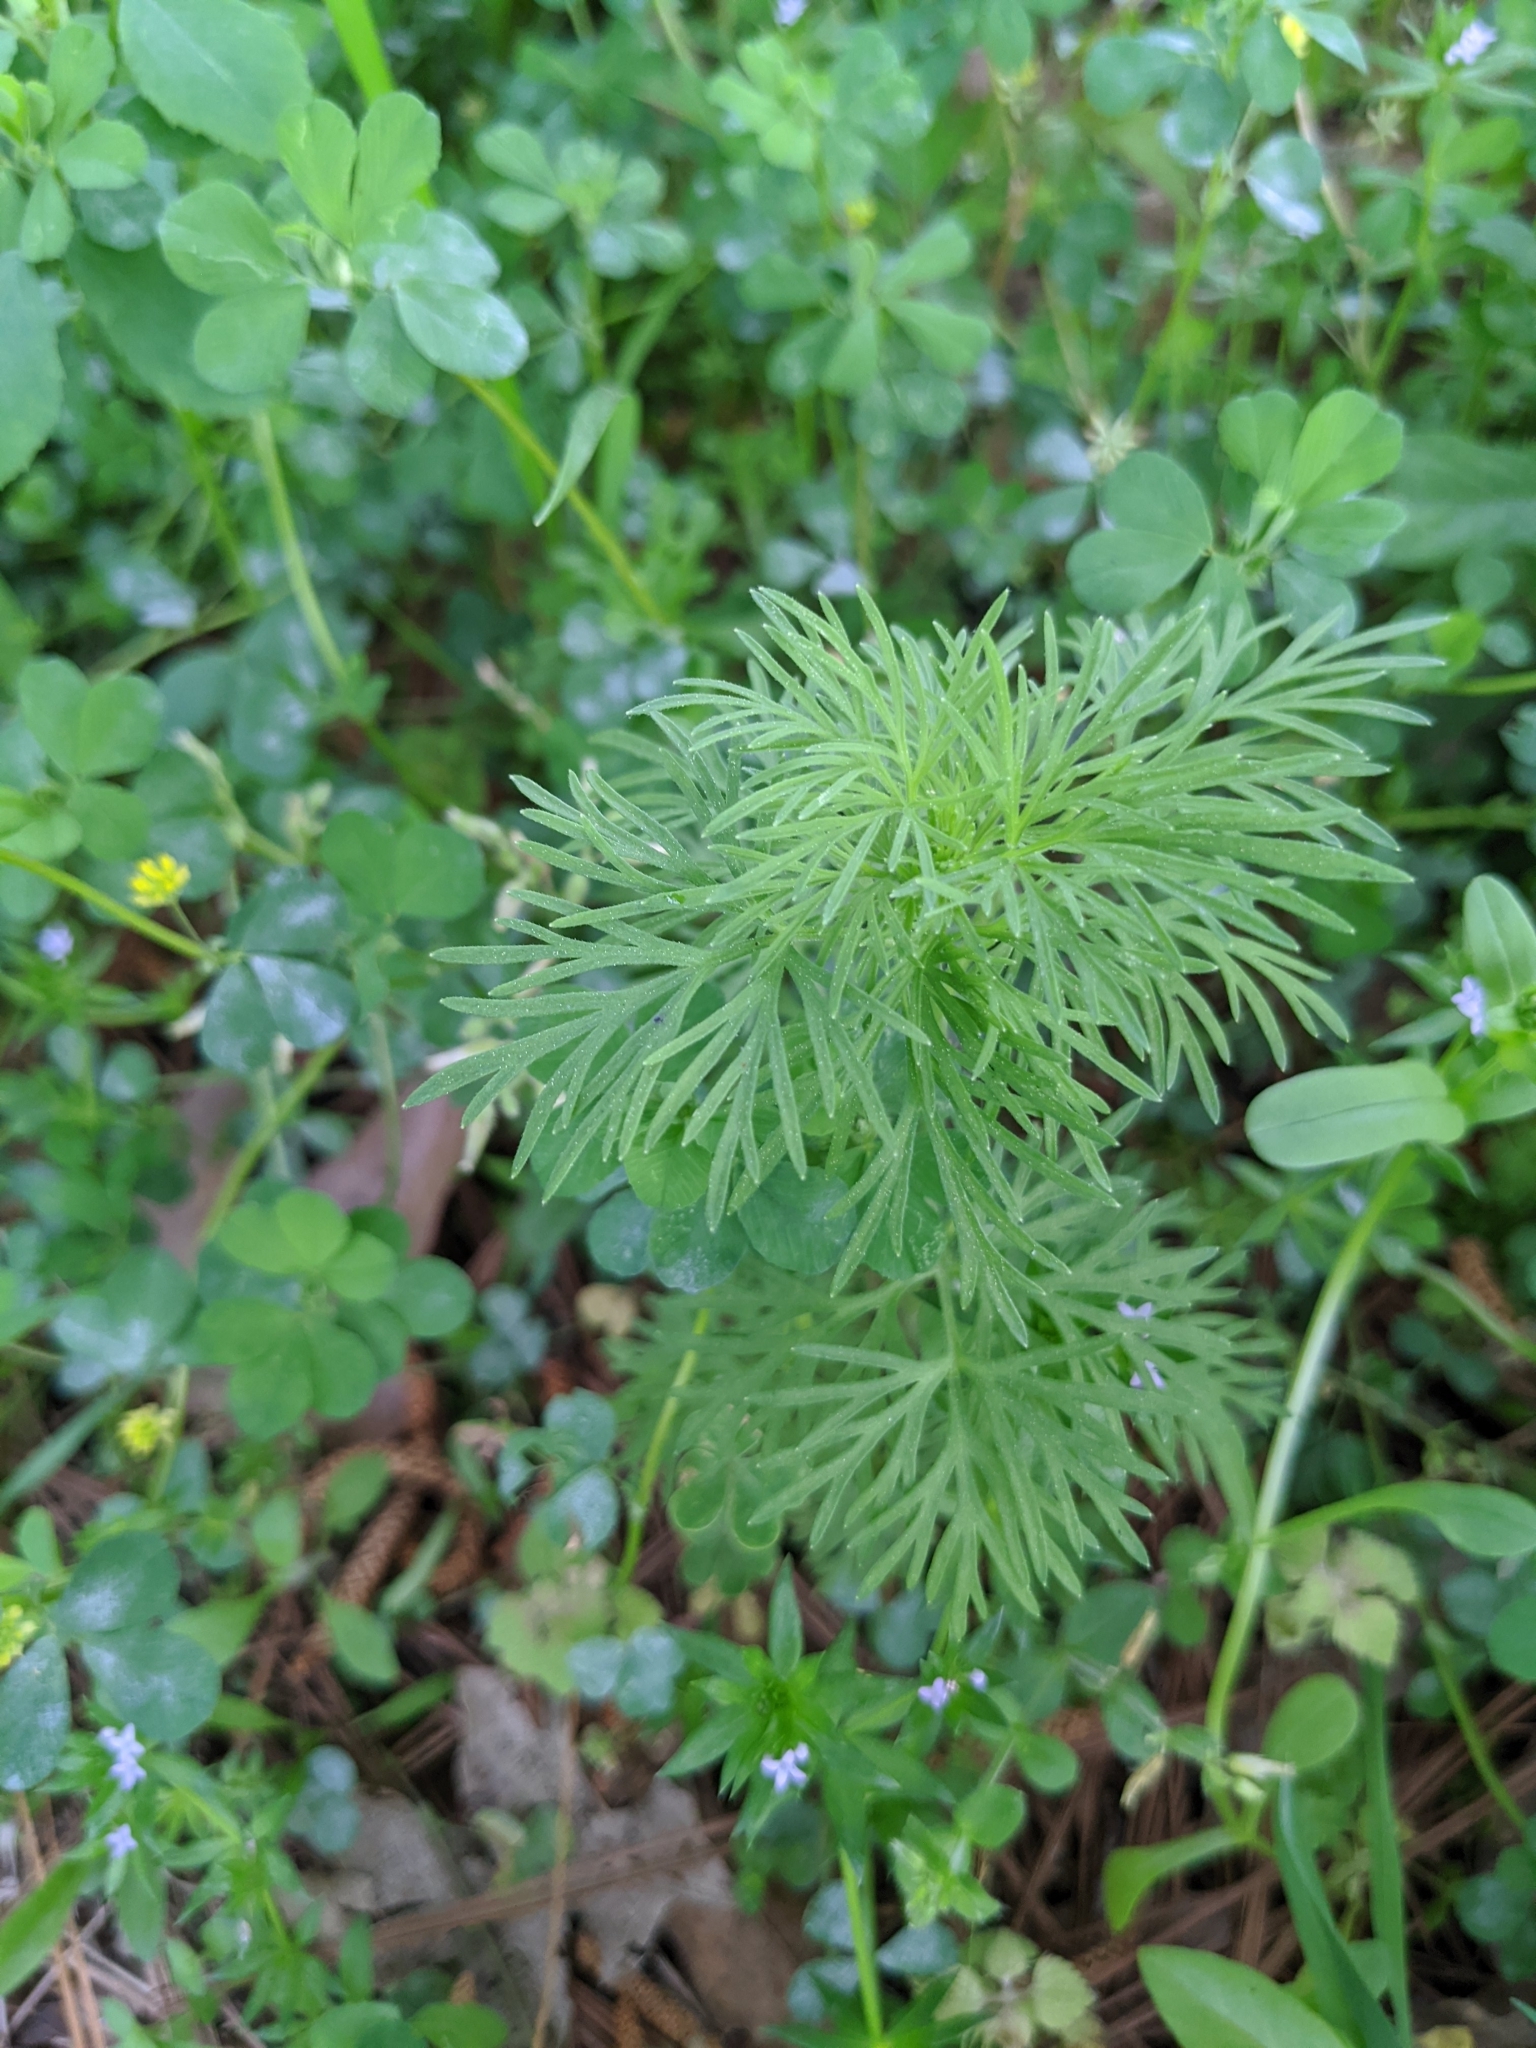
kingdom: Plantae
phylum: Tracheophyta
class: Magnoliopsida
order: Ranunculales
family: Ranunculaceae
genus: Delphinium
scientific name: Delphinium ajacis
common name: Doubtful knight's-spur
